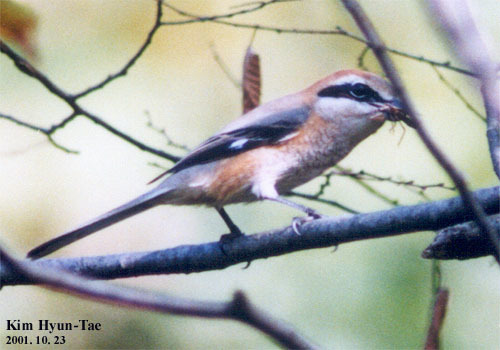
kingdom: Animalia
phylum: Chordata
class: Aves
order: Passeriformes
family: Laniidae
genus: Lanius
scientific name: Lanius bucephalus
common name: Bull-headed shrike
